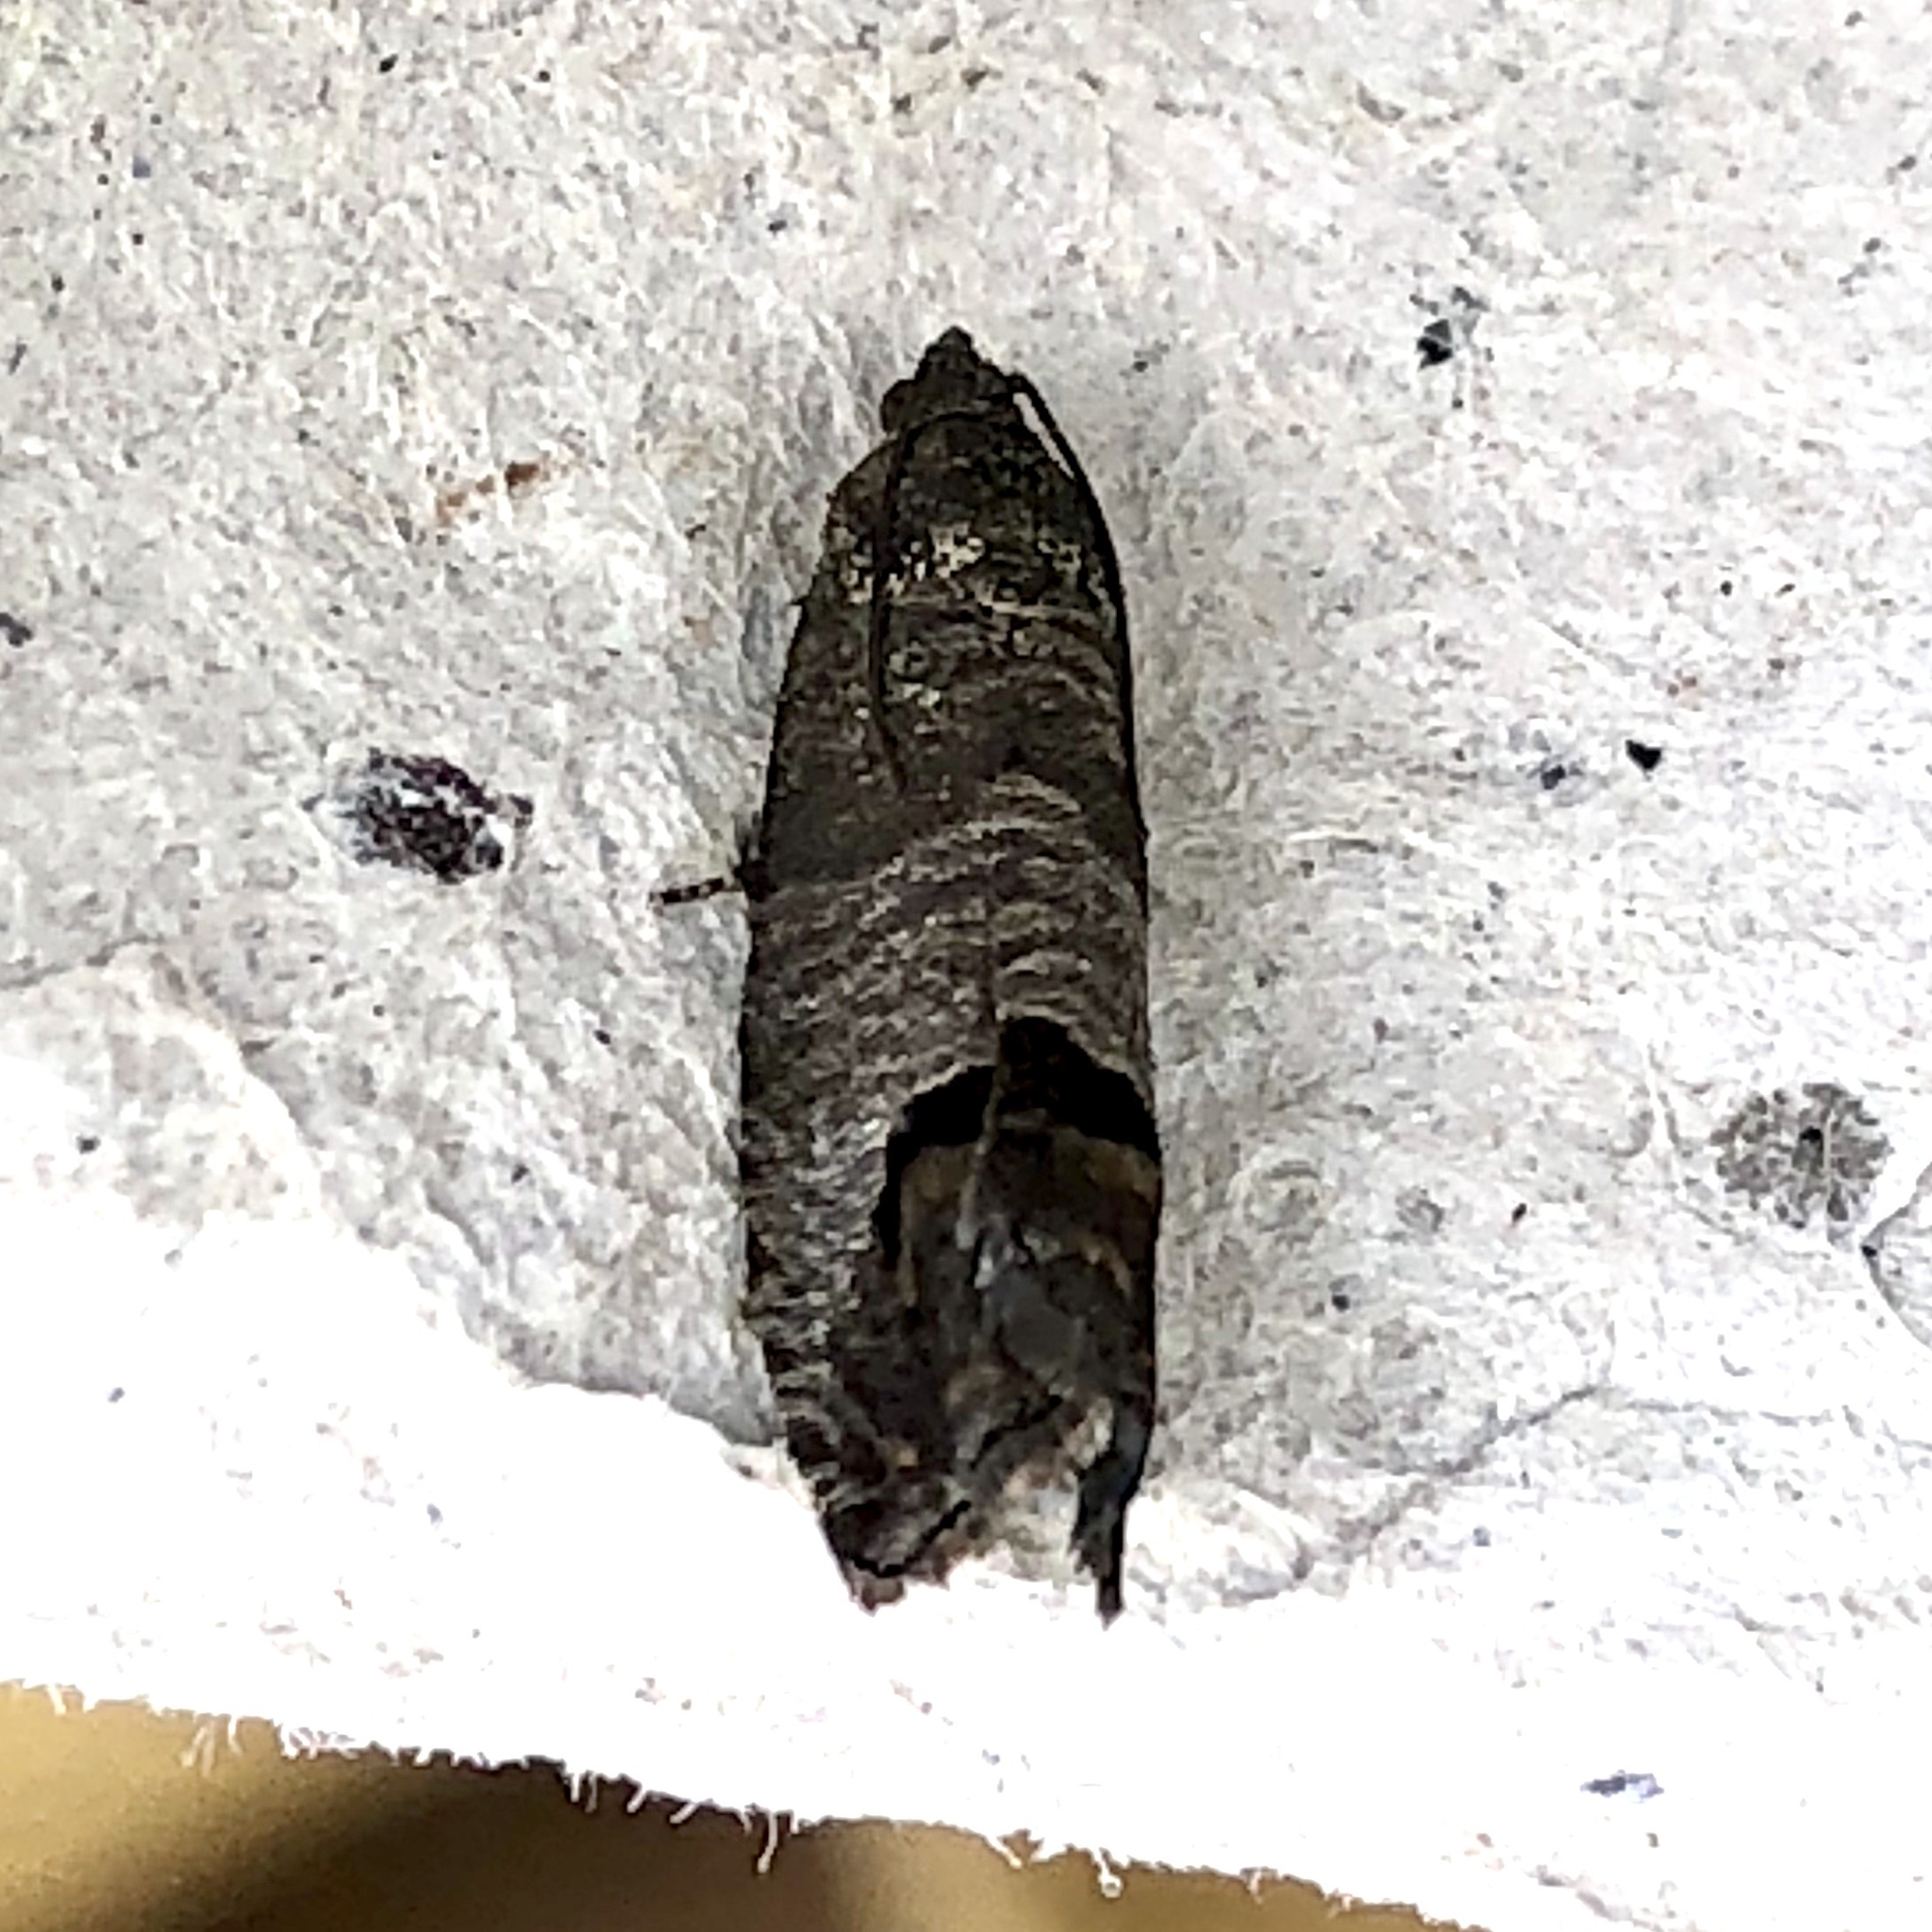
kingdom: Animalia
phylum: Arthropoda
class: Insecta
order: Lepidoptera
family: Tortricidae
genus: Cydia
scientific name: Cydia pomonella
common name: Codling moth
